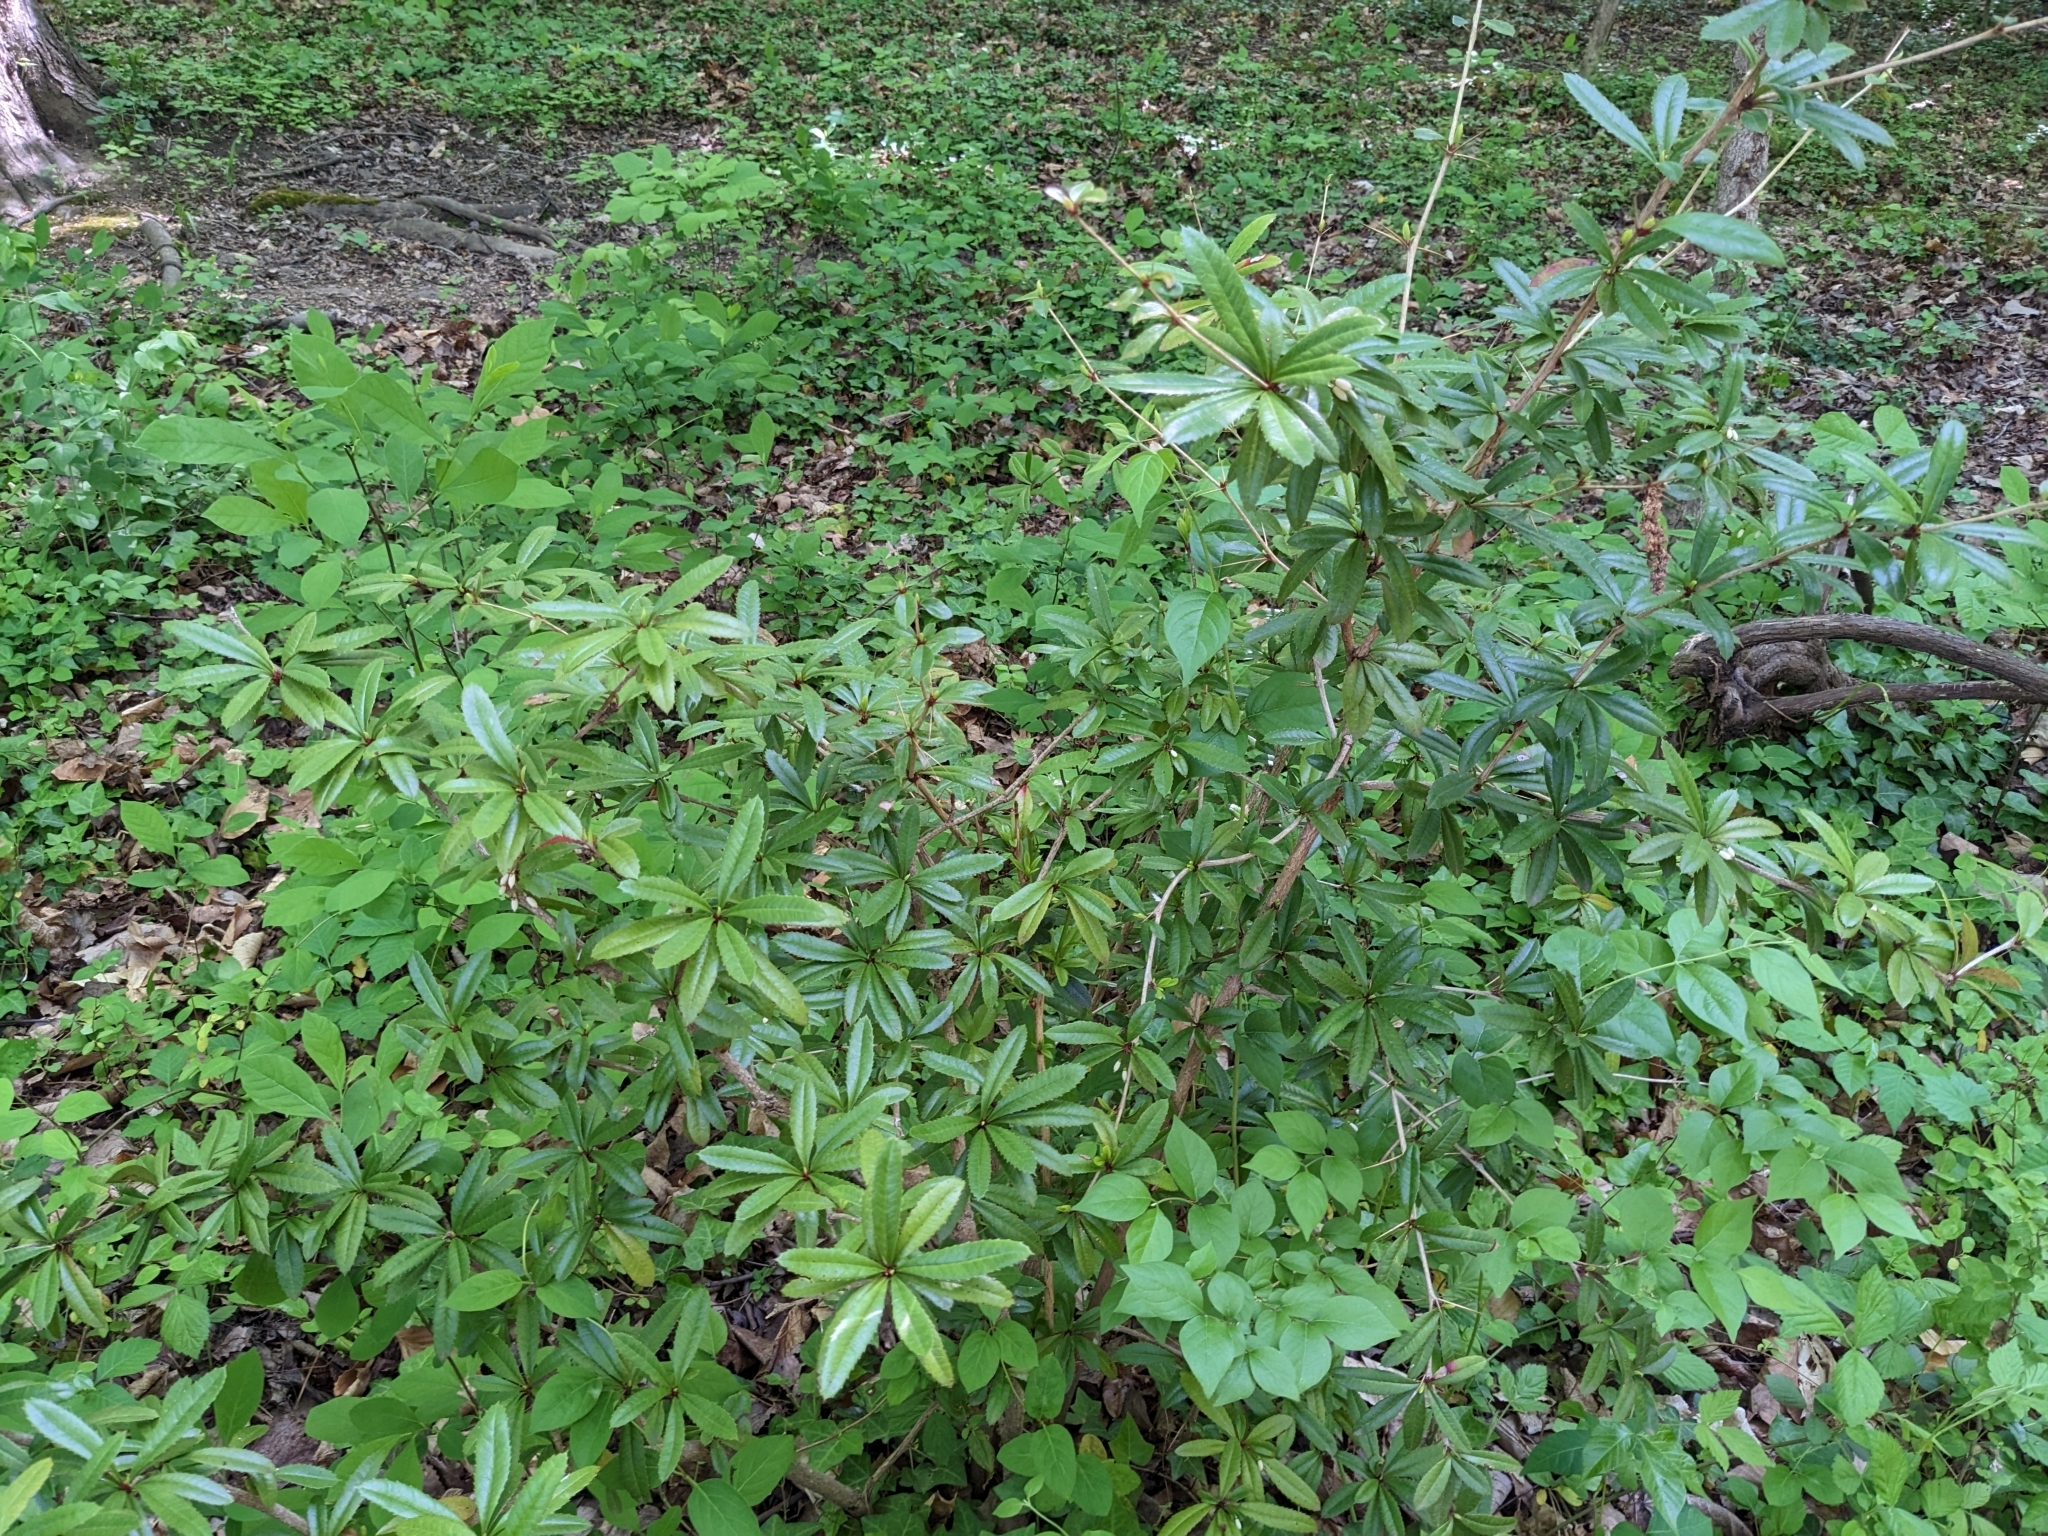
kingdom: Plantae
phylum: Tracheophyta
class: Magnoliopsida
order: Ranunculales
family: Berberidaceae
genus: Berberis
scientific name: Berberis julianae
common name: Wintergreen barberry
